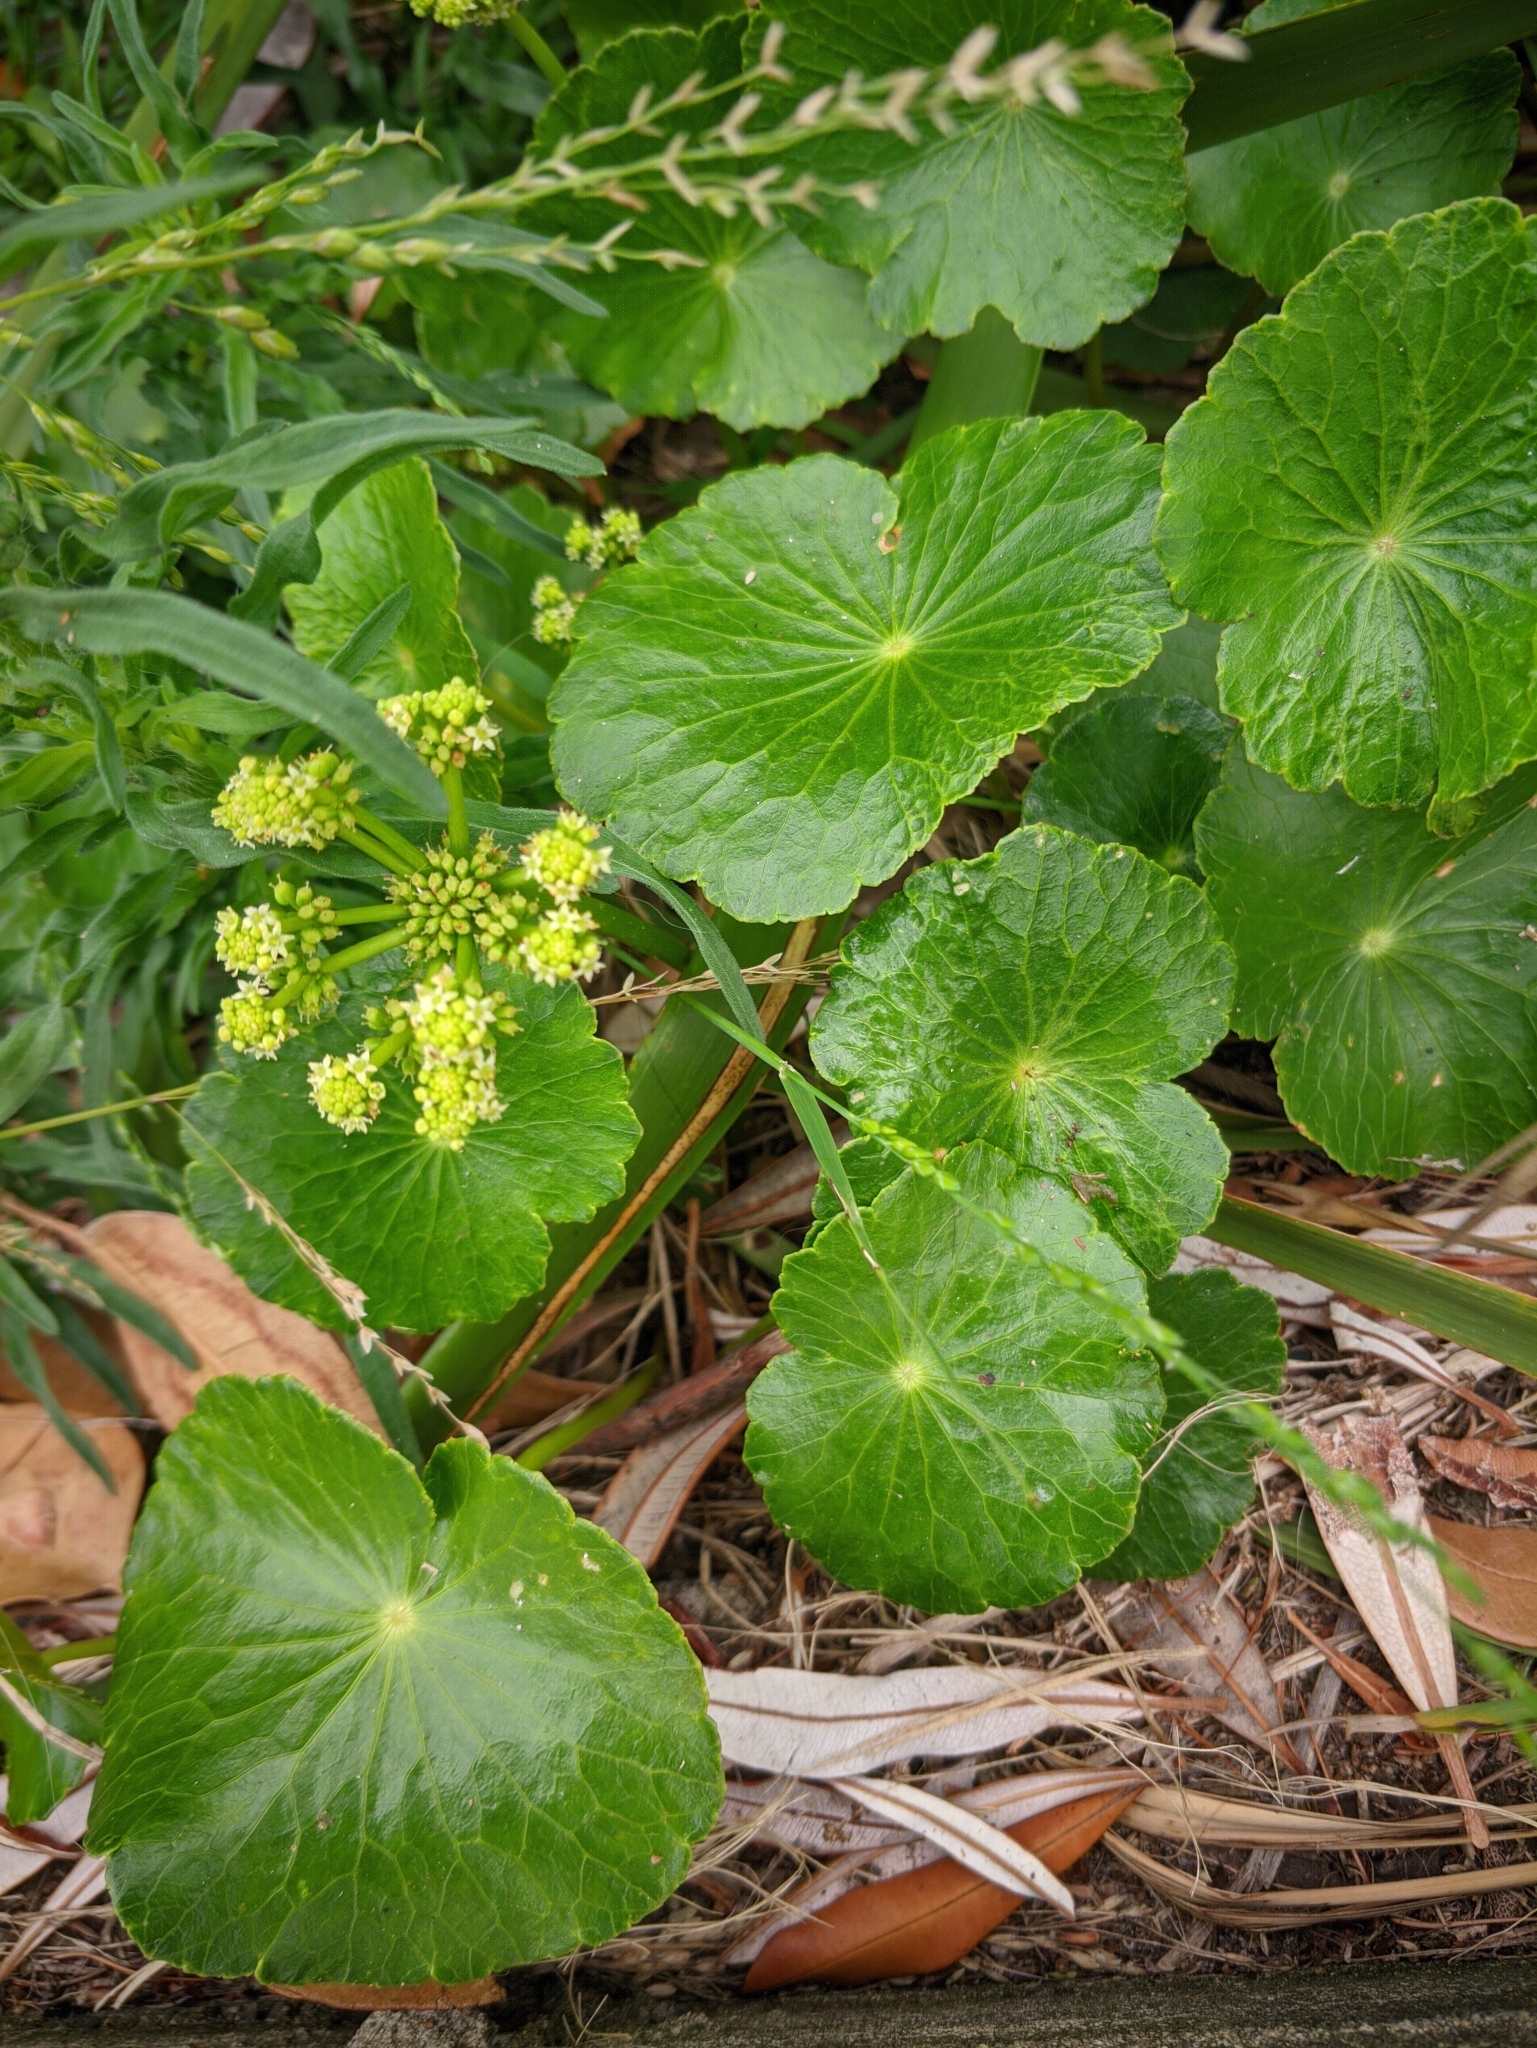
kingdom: Plantae
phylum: Tracheophyta
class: Magnoliopsida
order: Apiales
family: Araliaceae
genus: Hydrocotyle
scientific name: Hydrocotyle bonariensis
